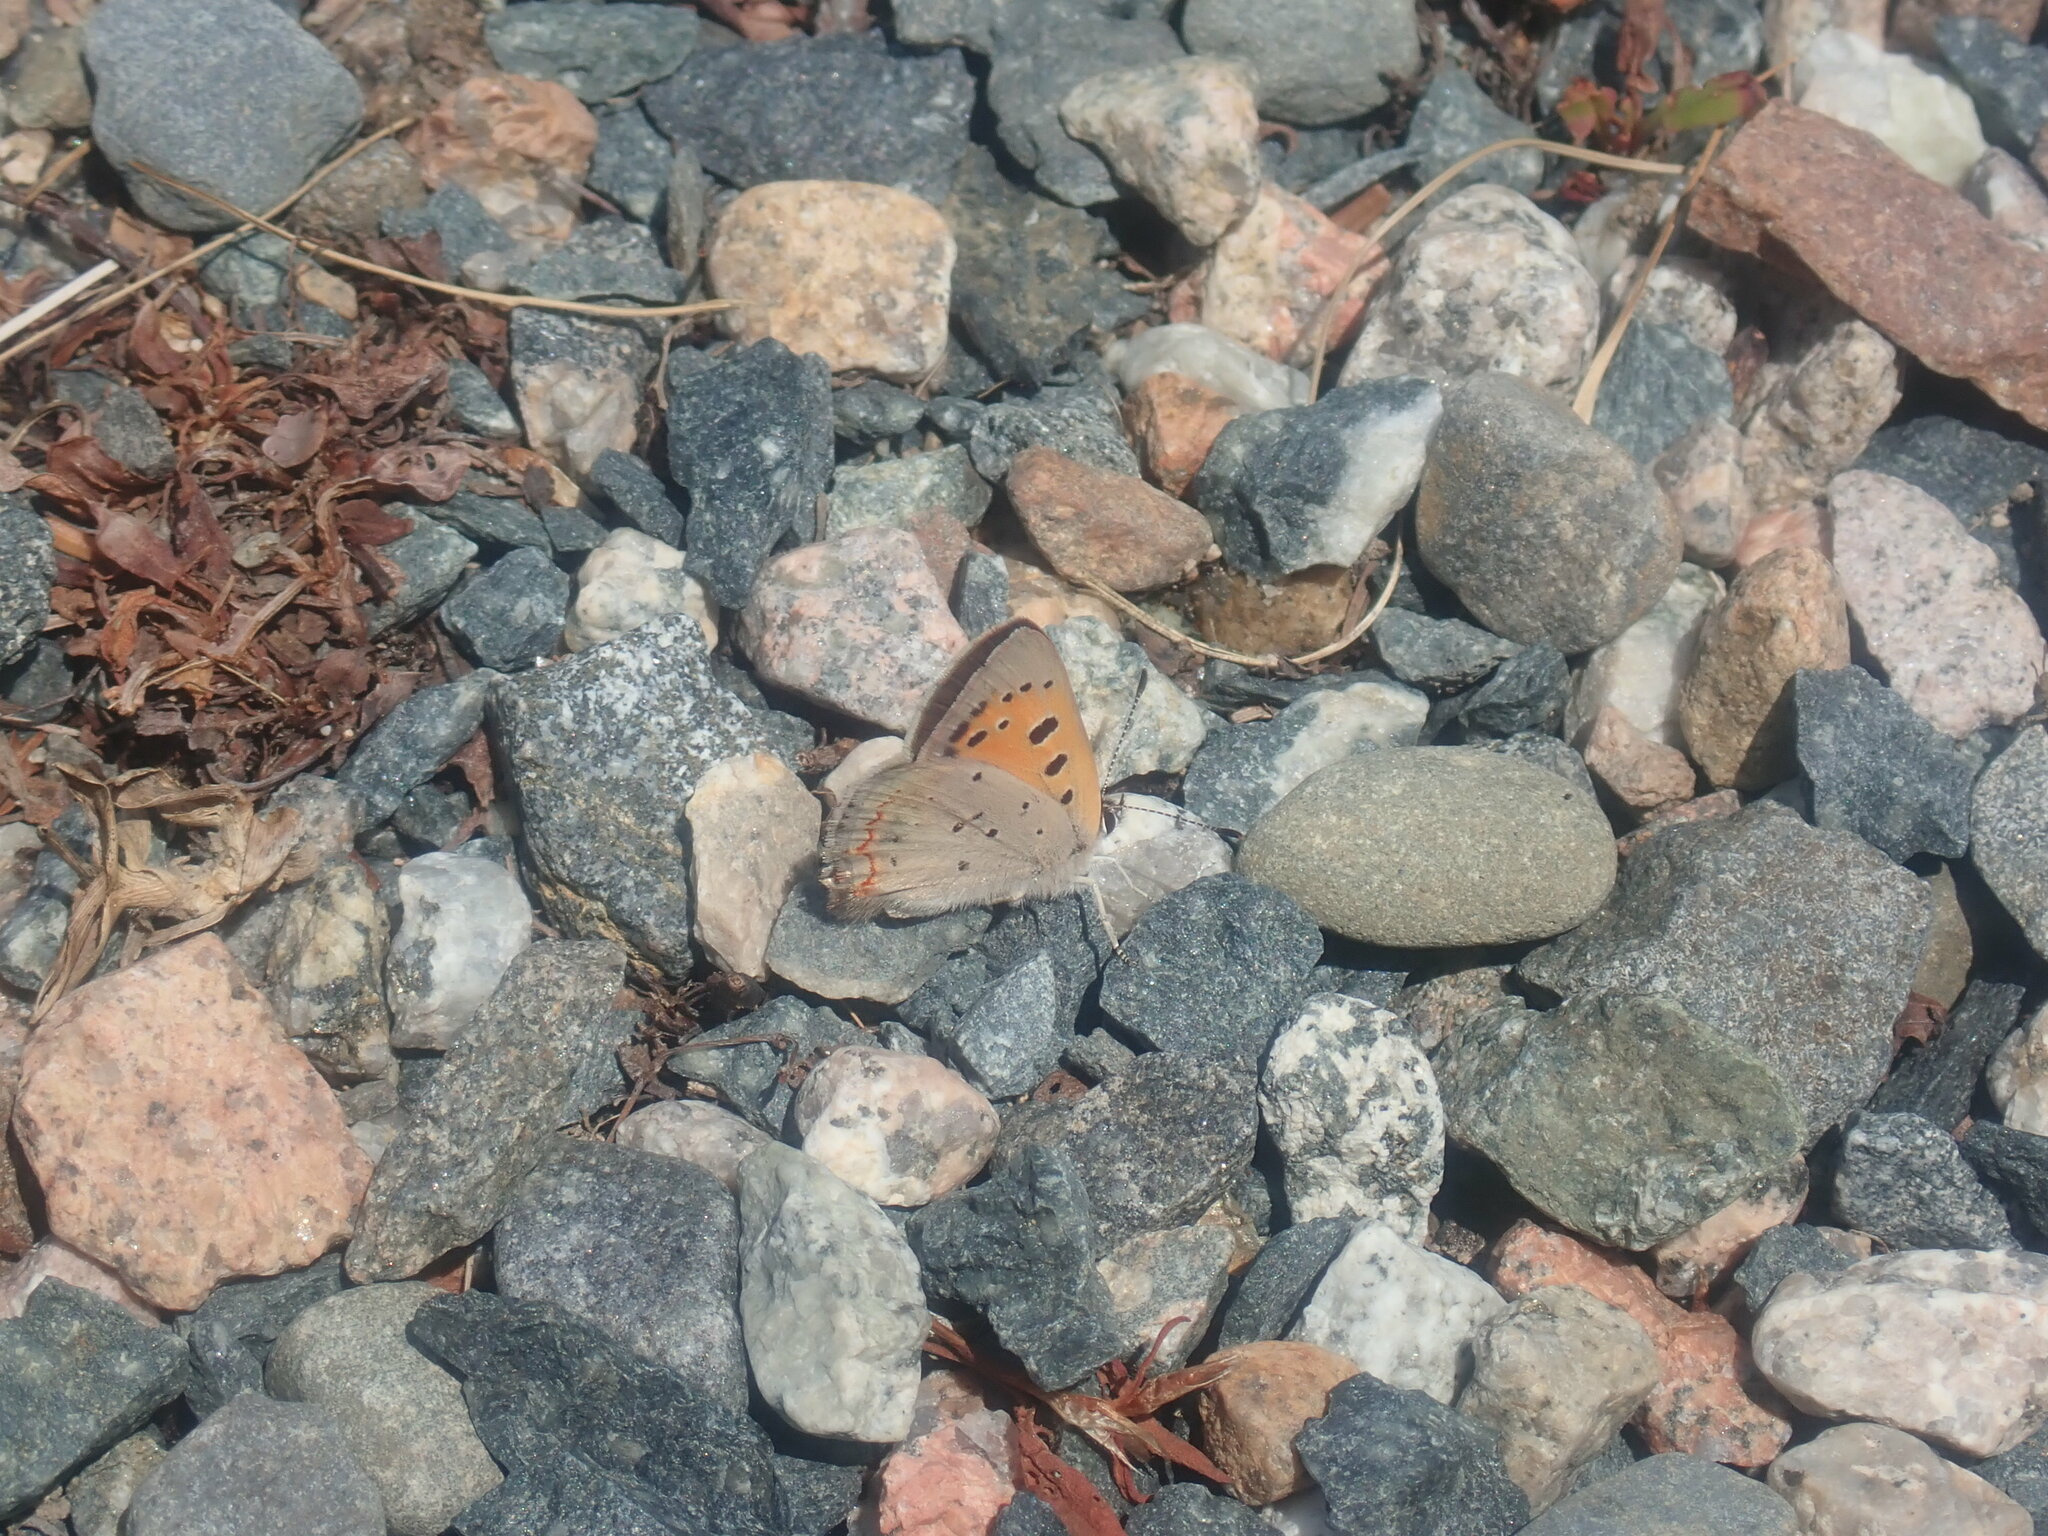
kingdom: Animalia
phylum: Arthropoda
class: Insecta
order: Lepidoptera
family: Lycaenidae
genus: Lycaena
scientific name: Lycaena hypophlaeas
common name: American copper
